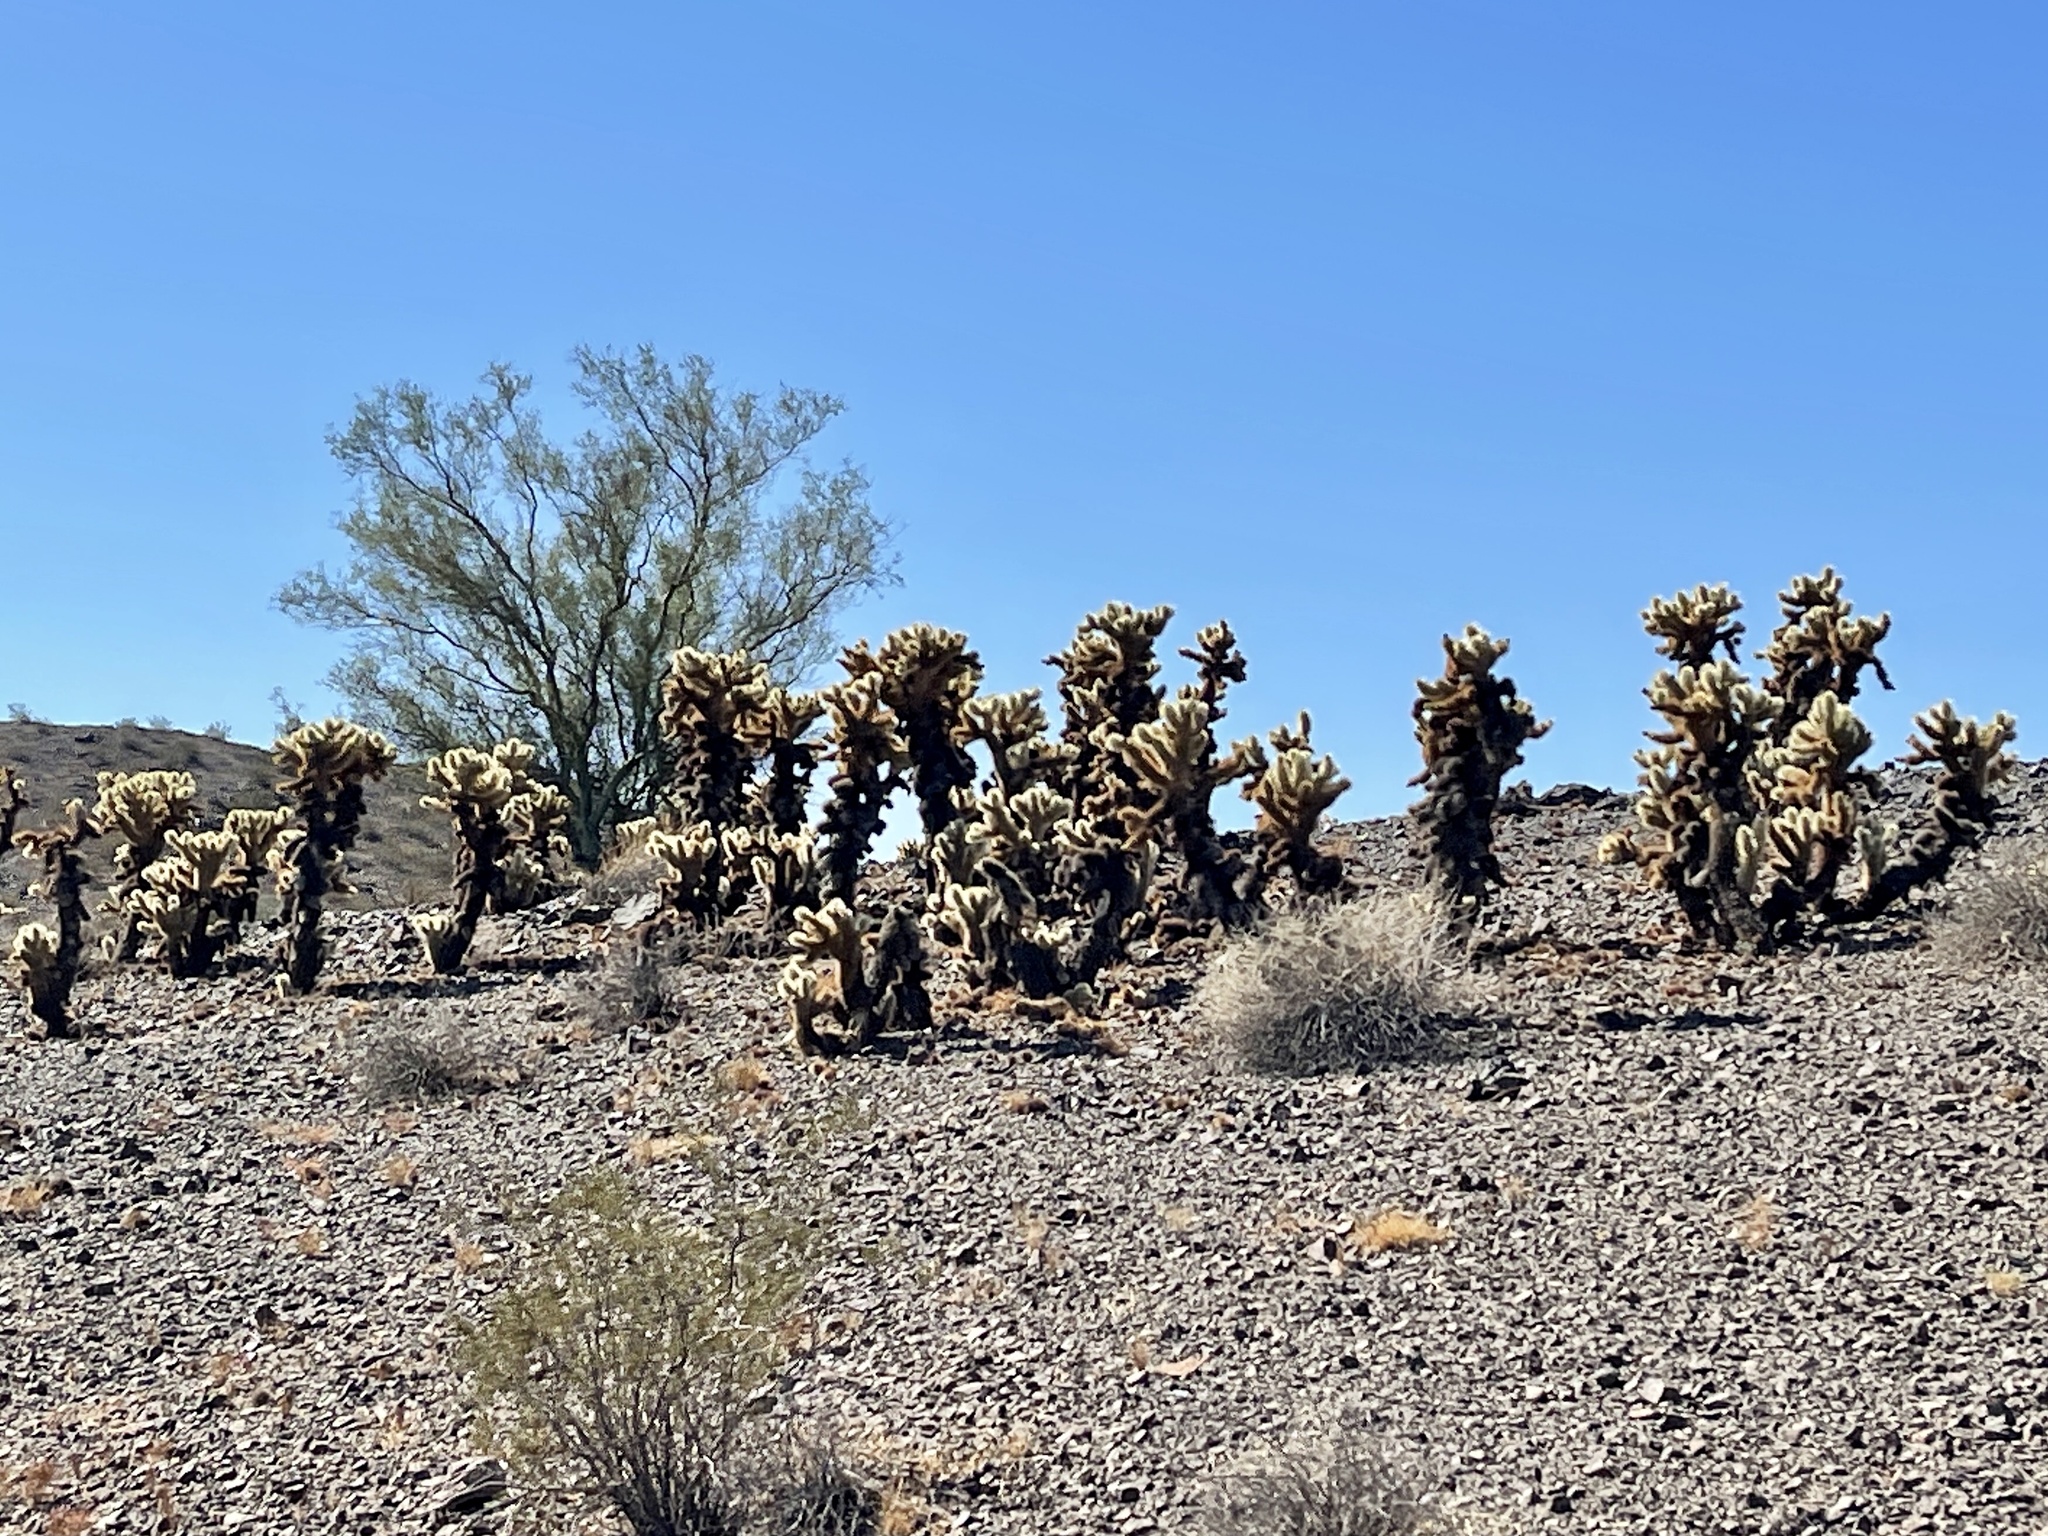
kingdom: Plantae
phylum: Tracheophyta
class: Magnoliopsida
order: Caryophyllales
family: Cactaceae
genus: Cylindropuntia
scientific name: Cylindropuntia fosbergii
